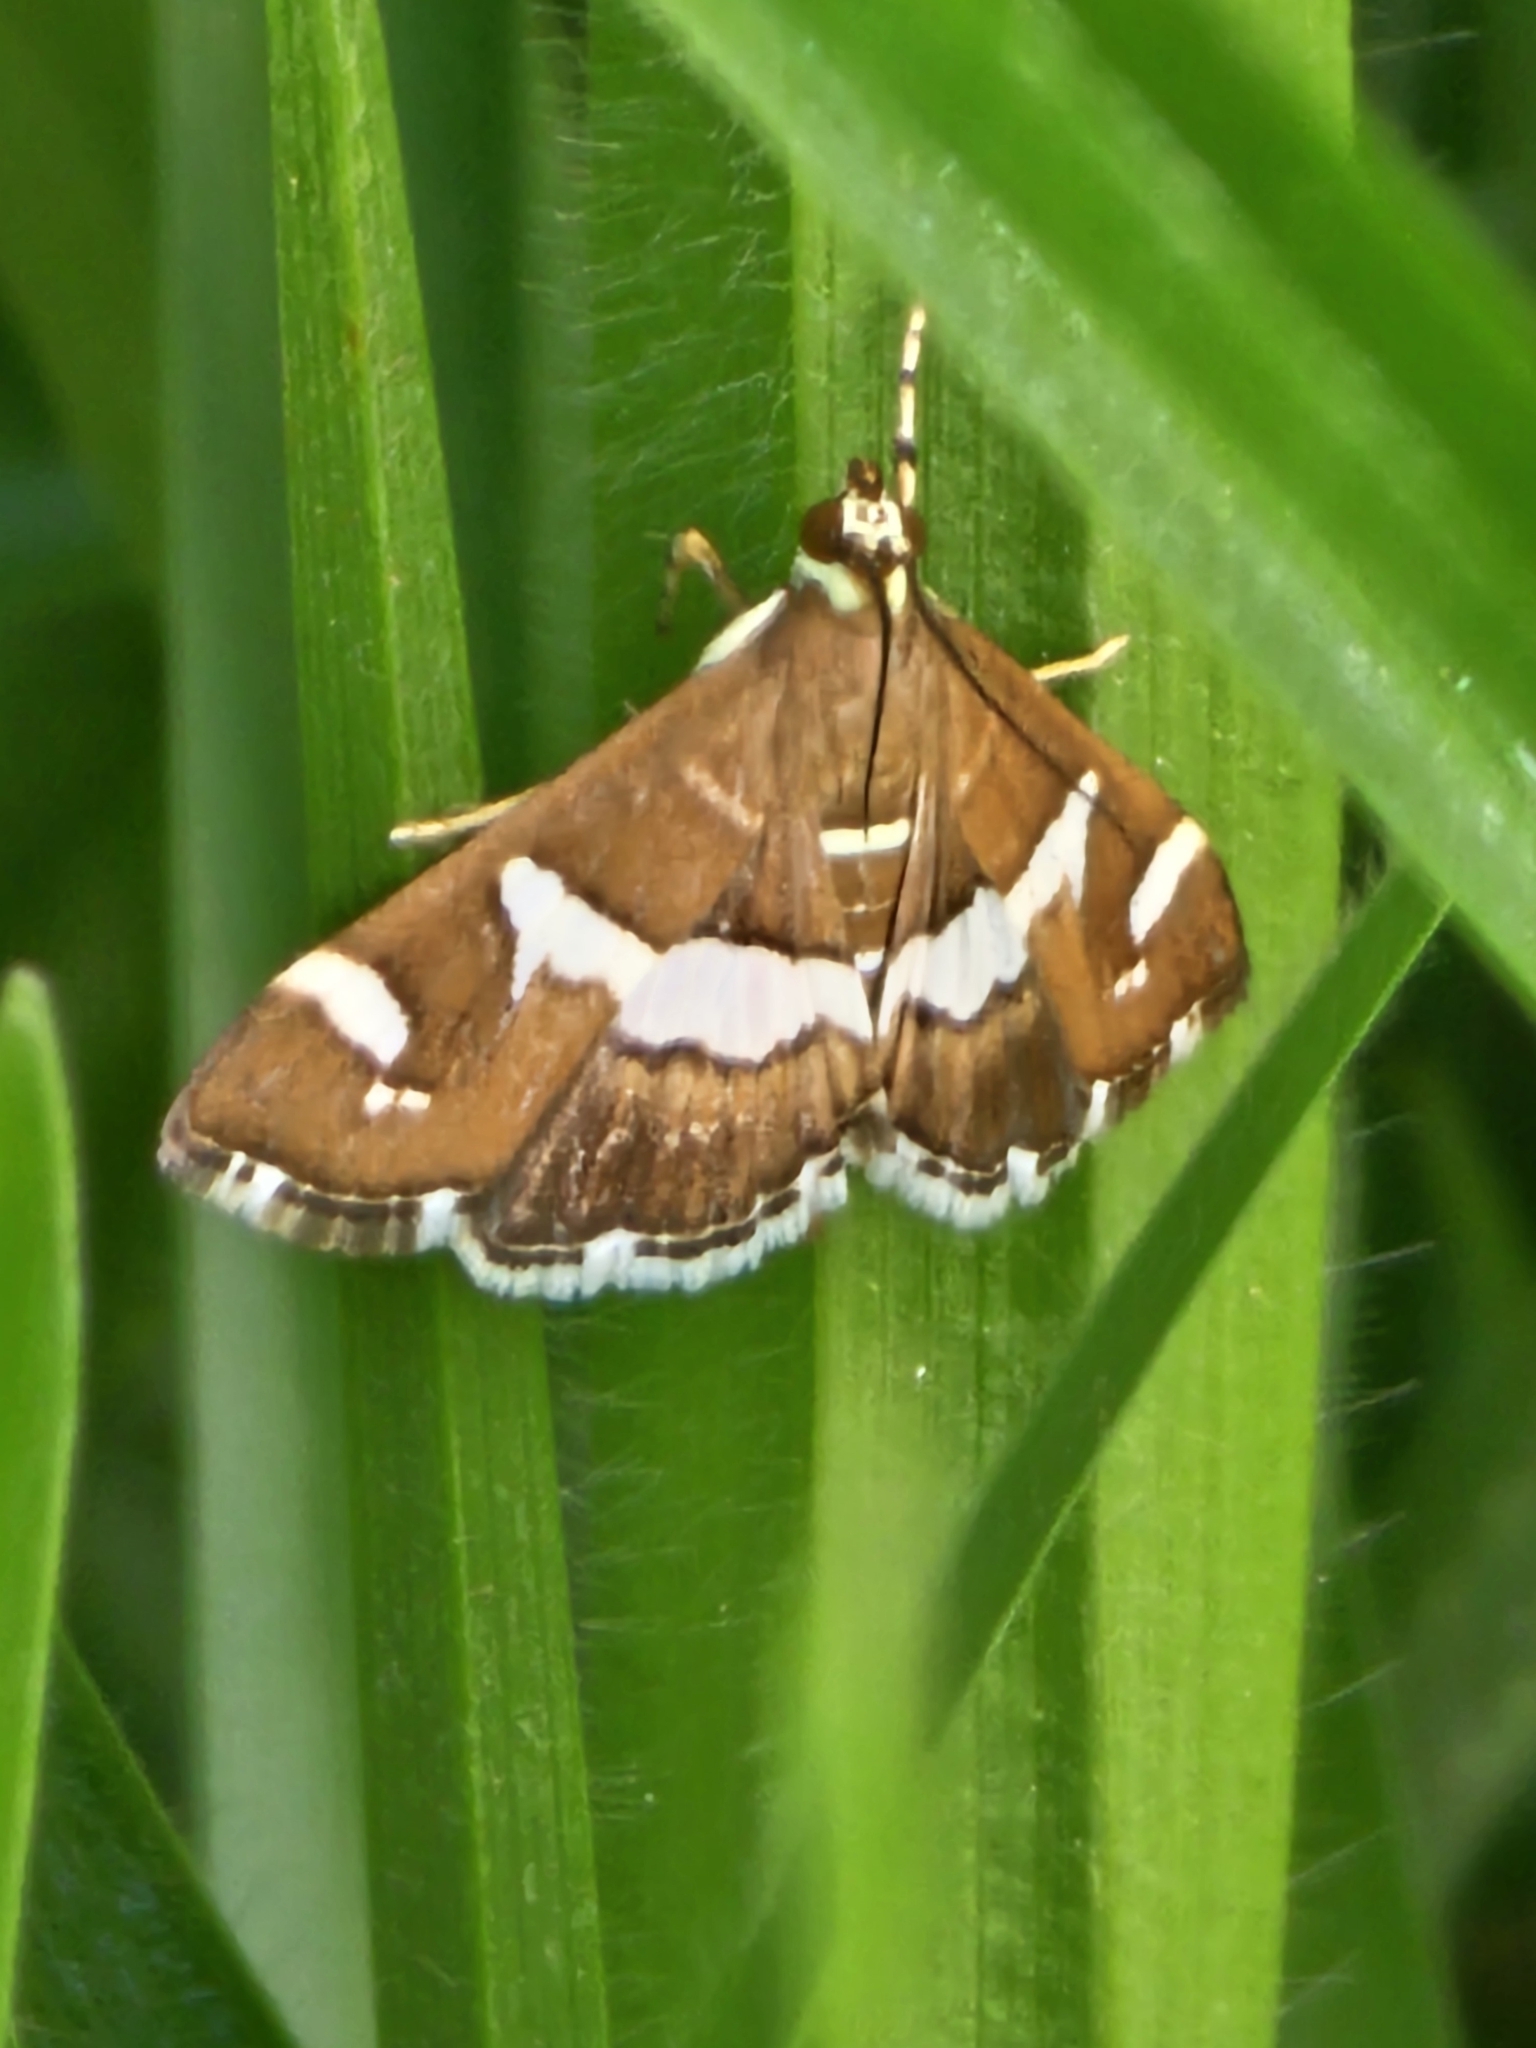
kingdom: Animalia
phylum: Arthropoda
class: Insecta
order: Lepidoptera
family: Crambidae
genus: Spoladea
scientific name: Spoladea recurvalis
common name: Beet webworm moth
